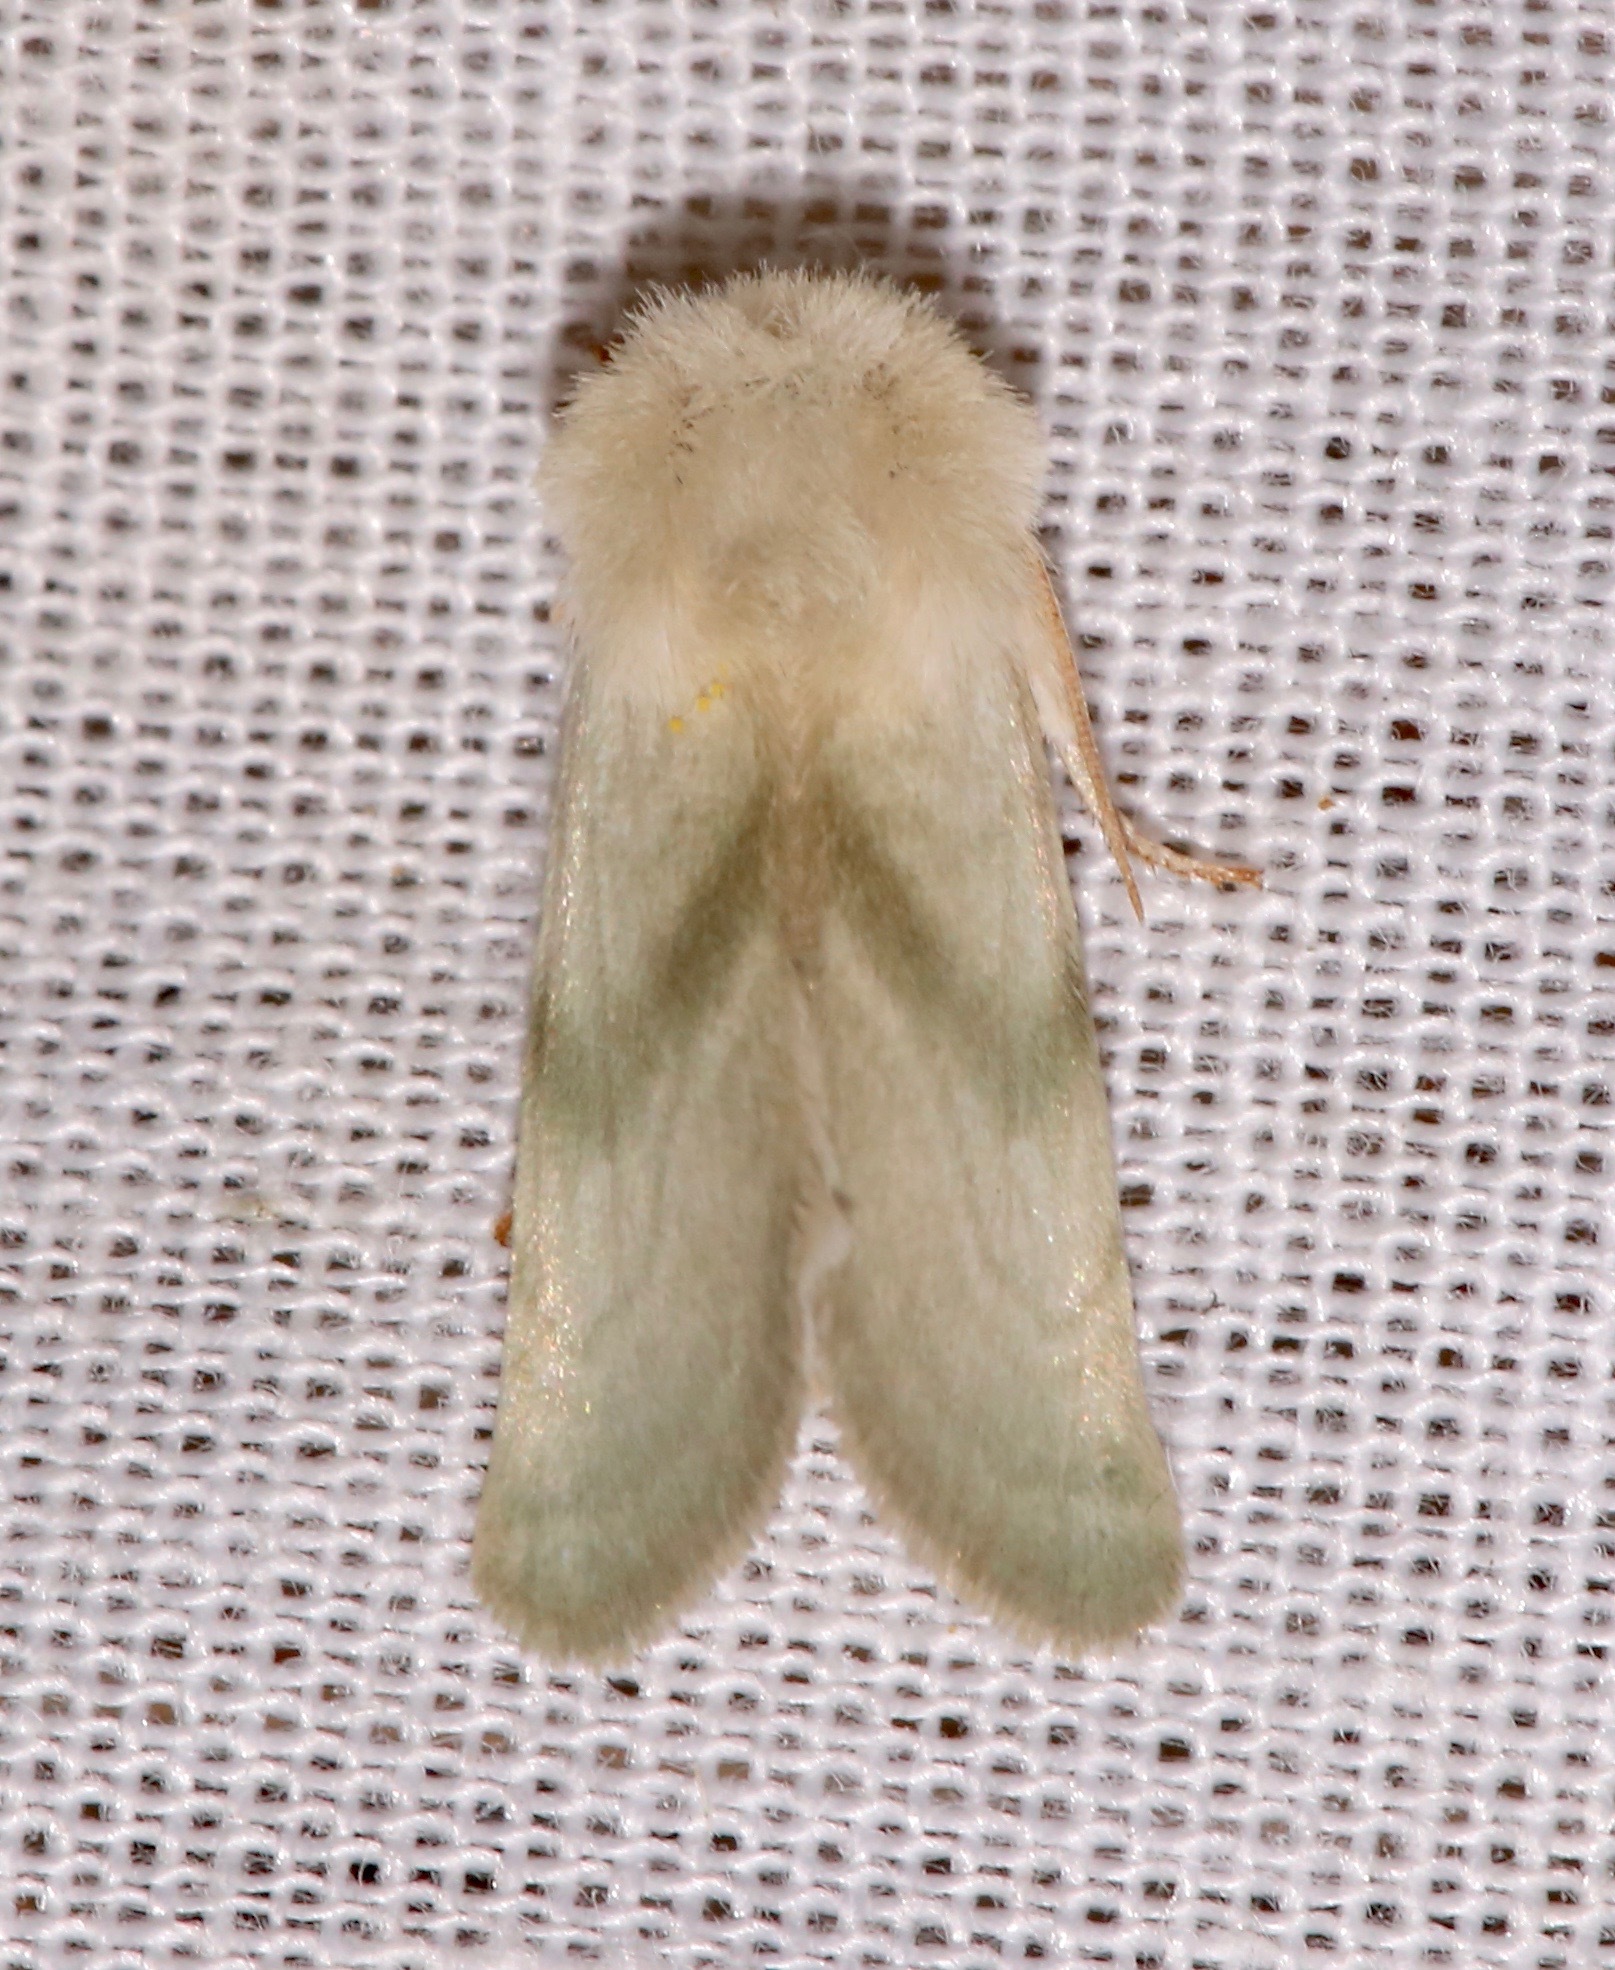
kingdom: Animalia
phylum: Arthropoda
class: Insecta
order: Lepidoptera
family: Noctuidae
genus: Nocloa
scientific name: Nocloa pallens
